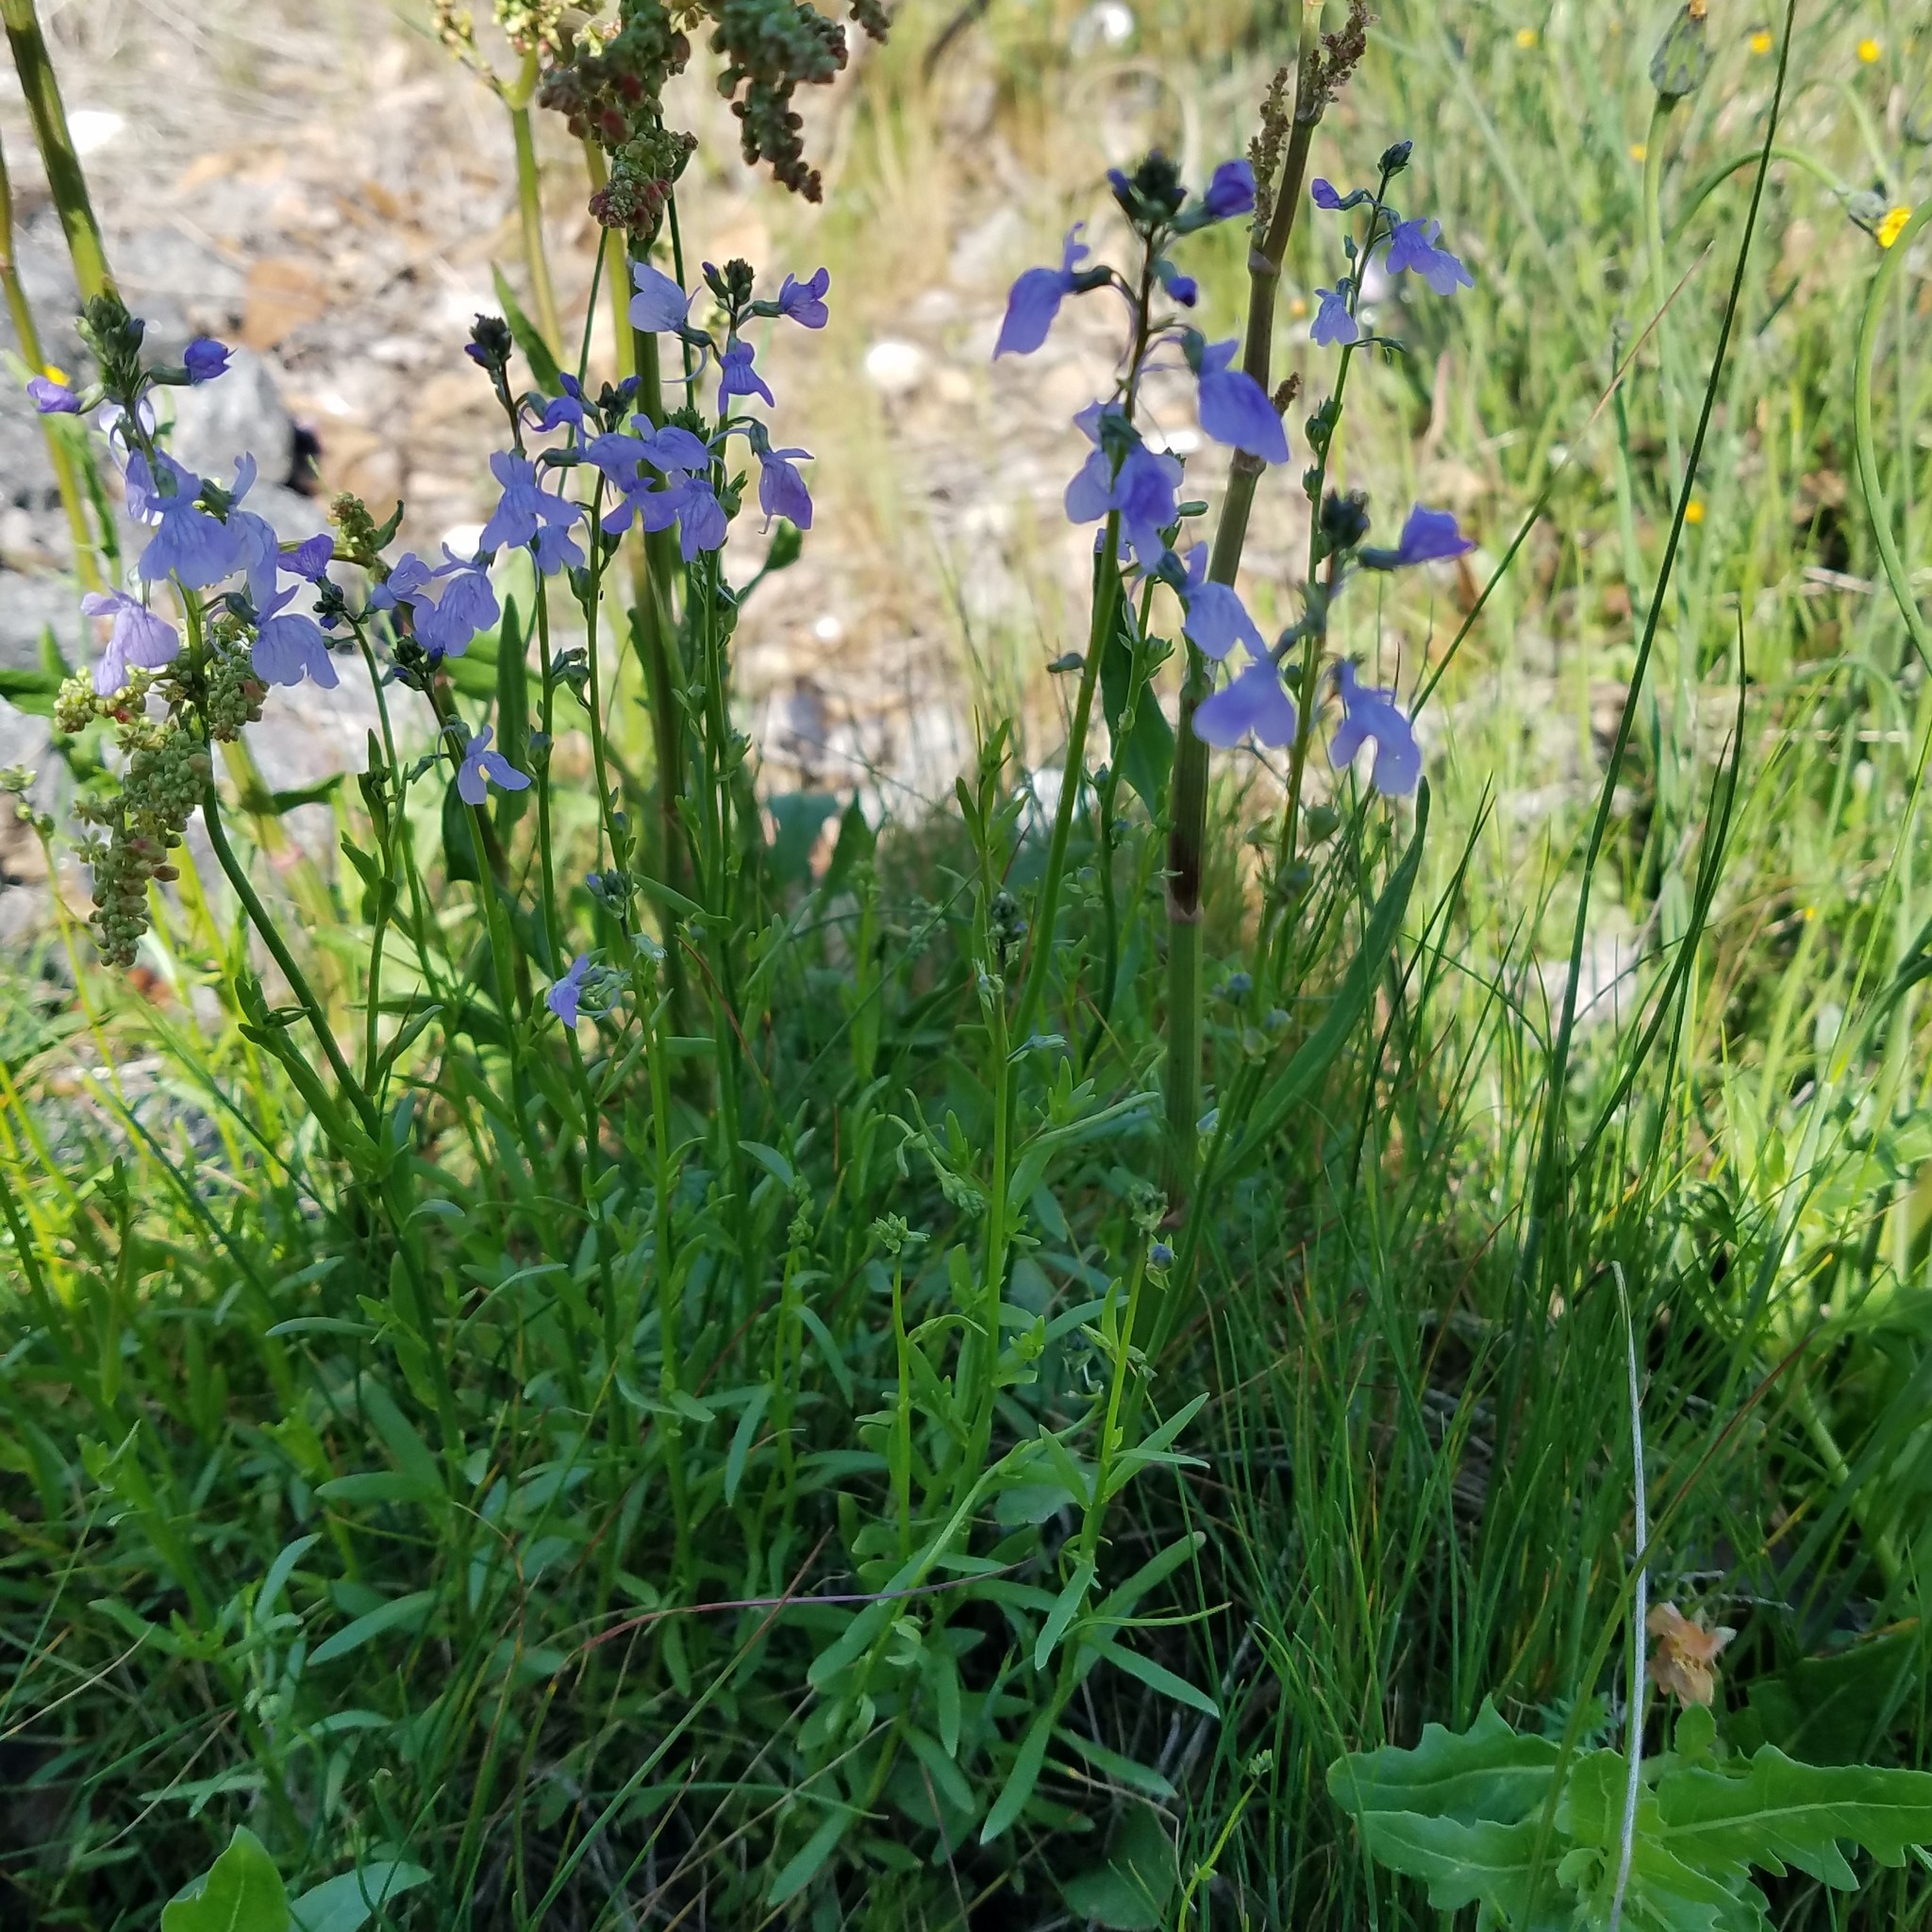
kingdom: Plantae
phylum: Tracheophyta
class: Magnoliopsida
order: Lamiales
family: Plantaginaceae
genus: Nuttallanthus
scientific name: Nuttallanthus texanus
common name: Texas toadflax
